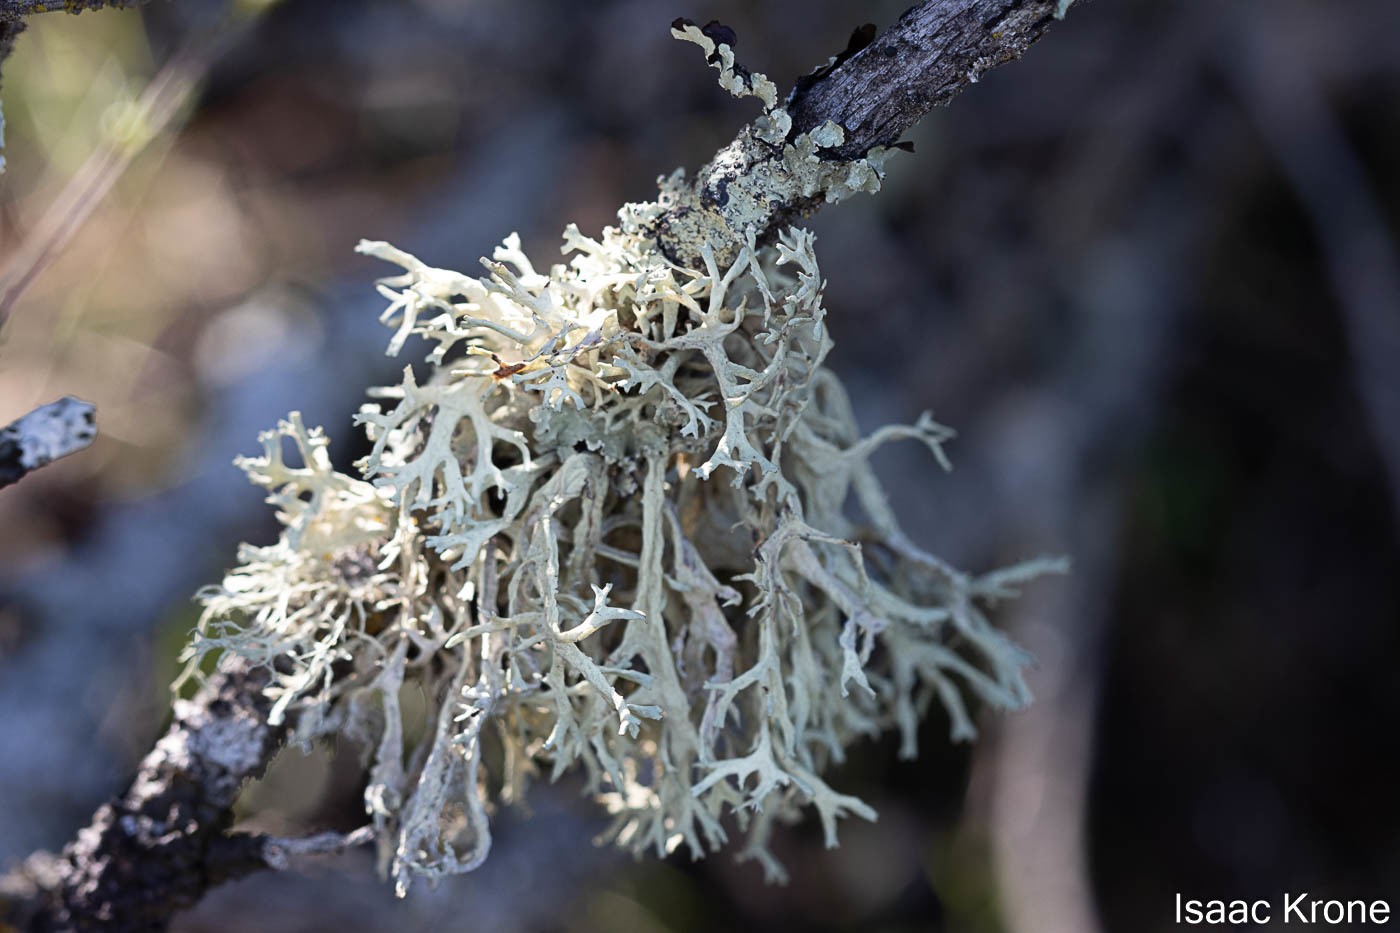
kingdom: Fungi
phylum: Ascomycota
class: Lecanoromycetes
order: Lecanorales
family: Parmeliaceae
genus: Evernia
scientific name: Evernia prunastri
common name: Oak moss
